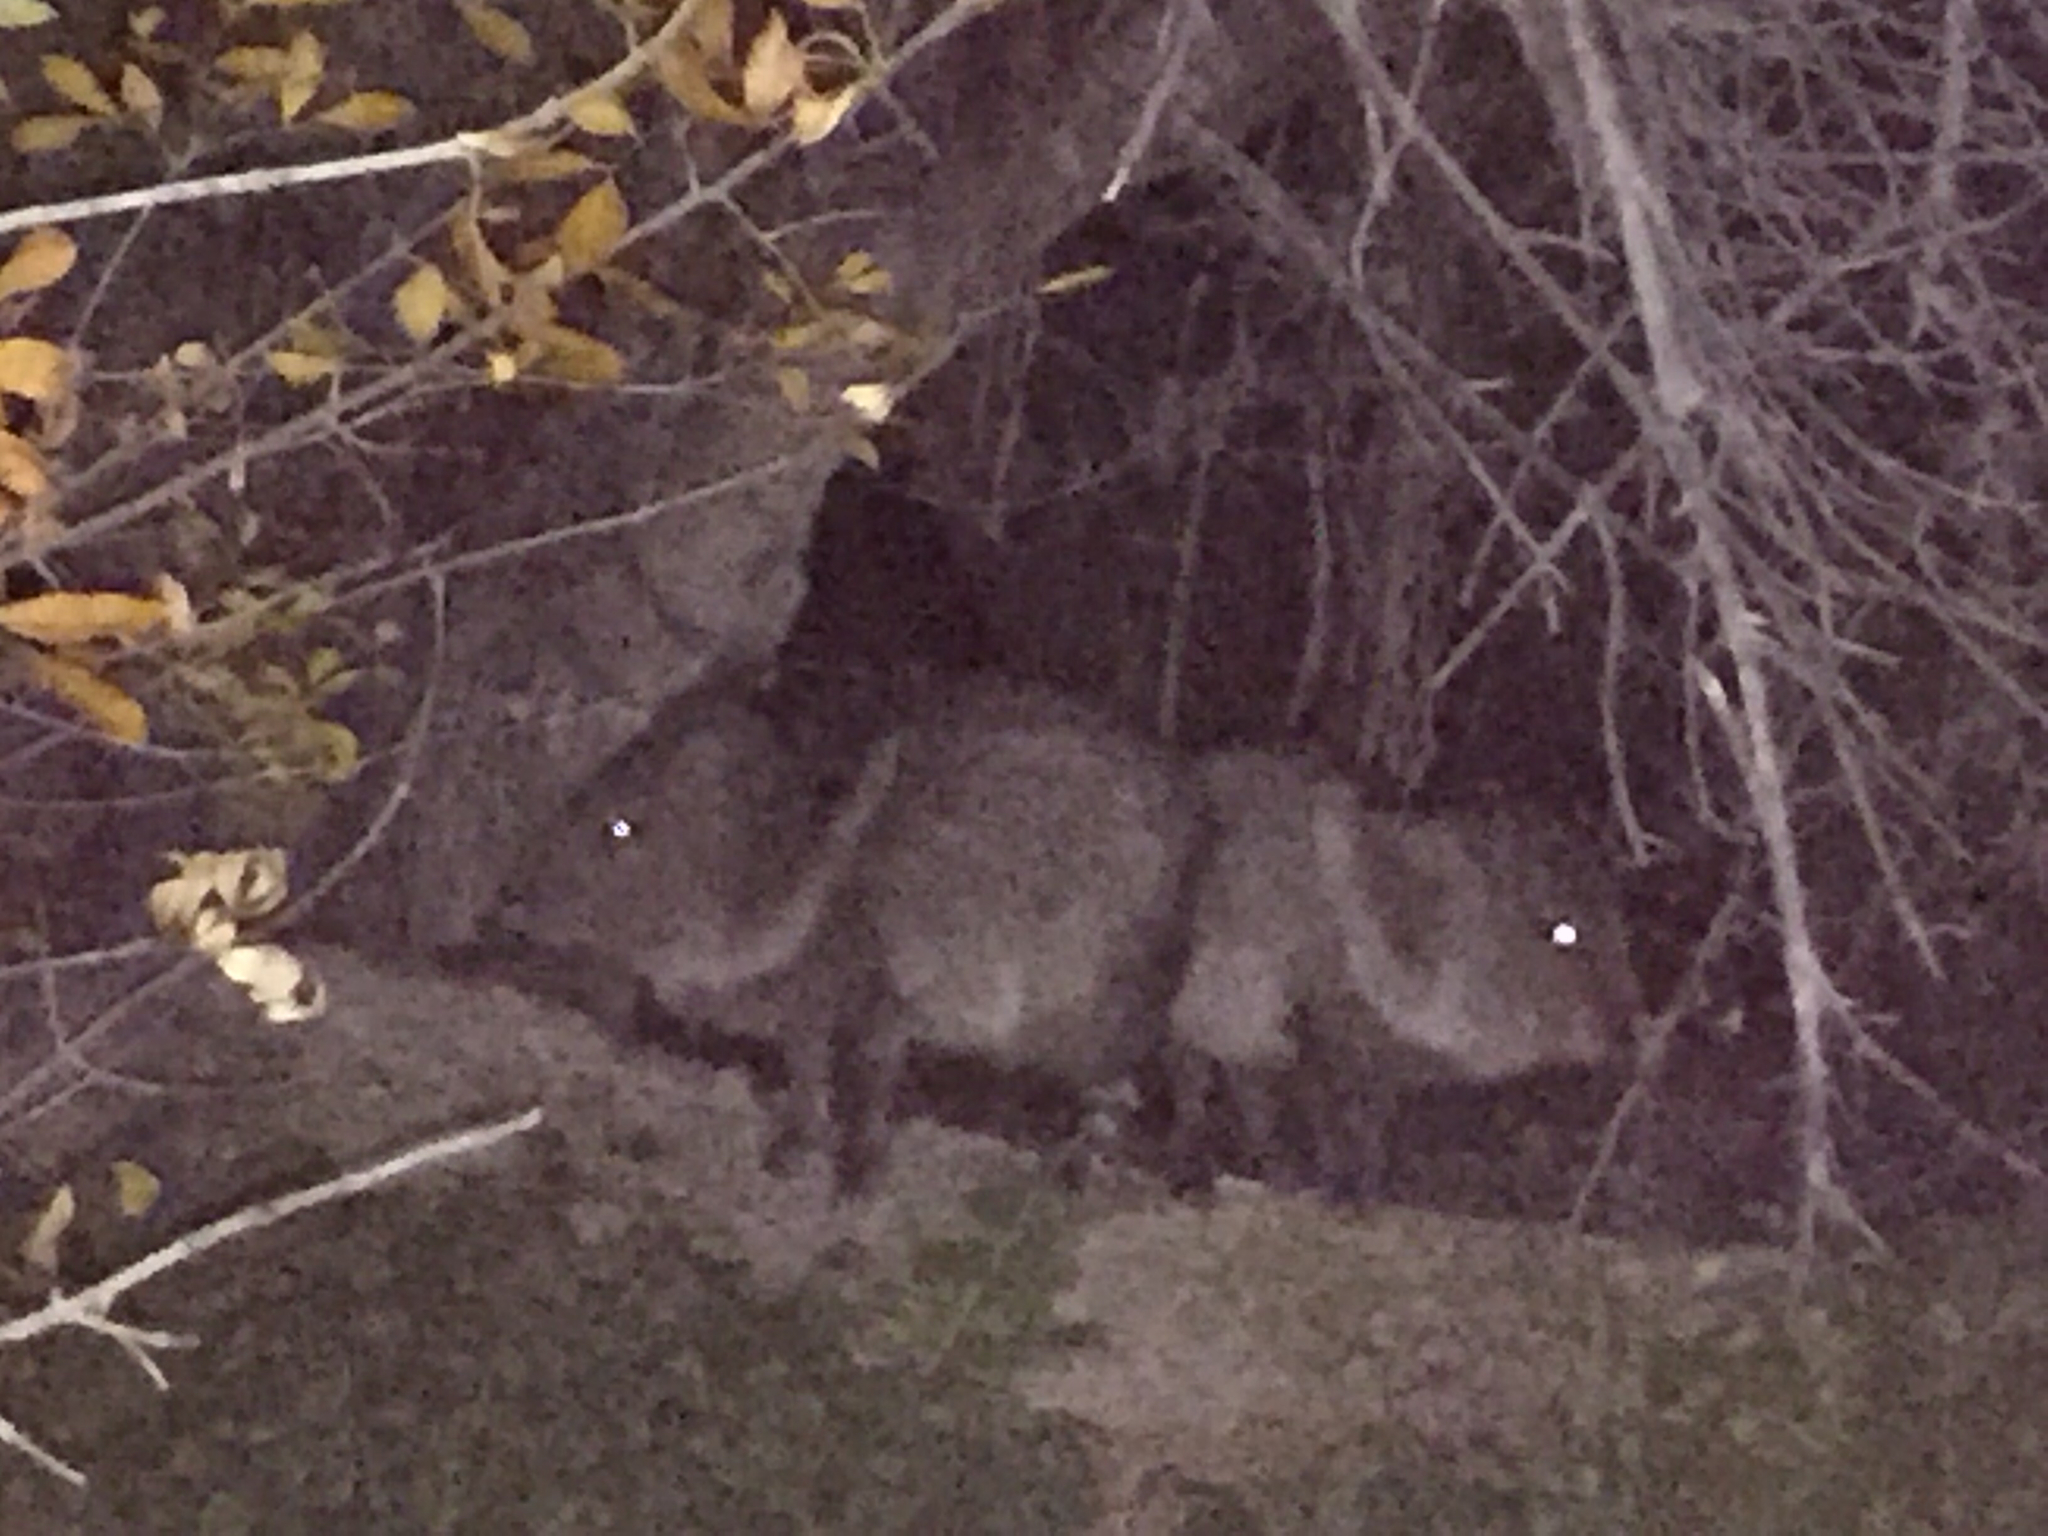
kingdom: Animalia
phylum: Chordata
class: Mammalia
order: Artiodactyla
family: Tayassuidae
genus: Pecari
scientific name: Pecari tajacu
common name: Collared peccary
